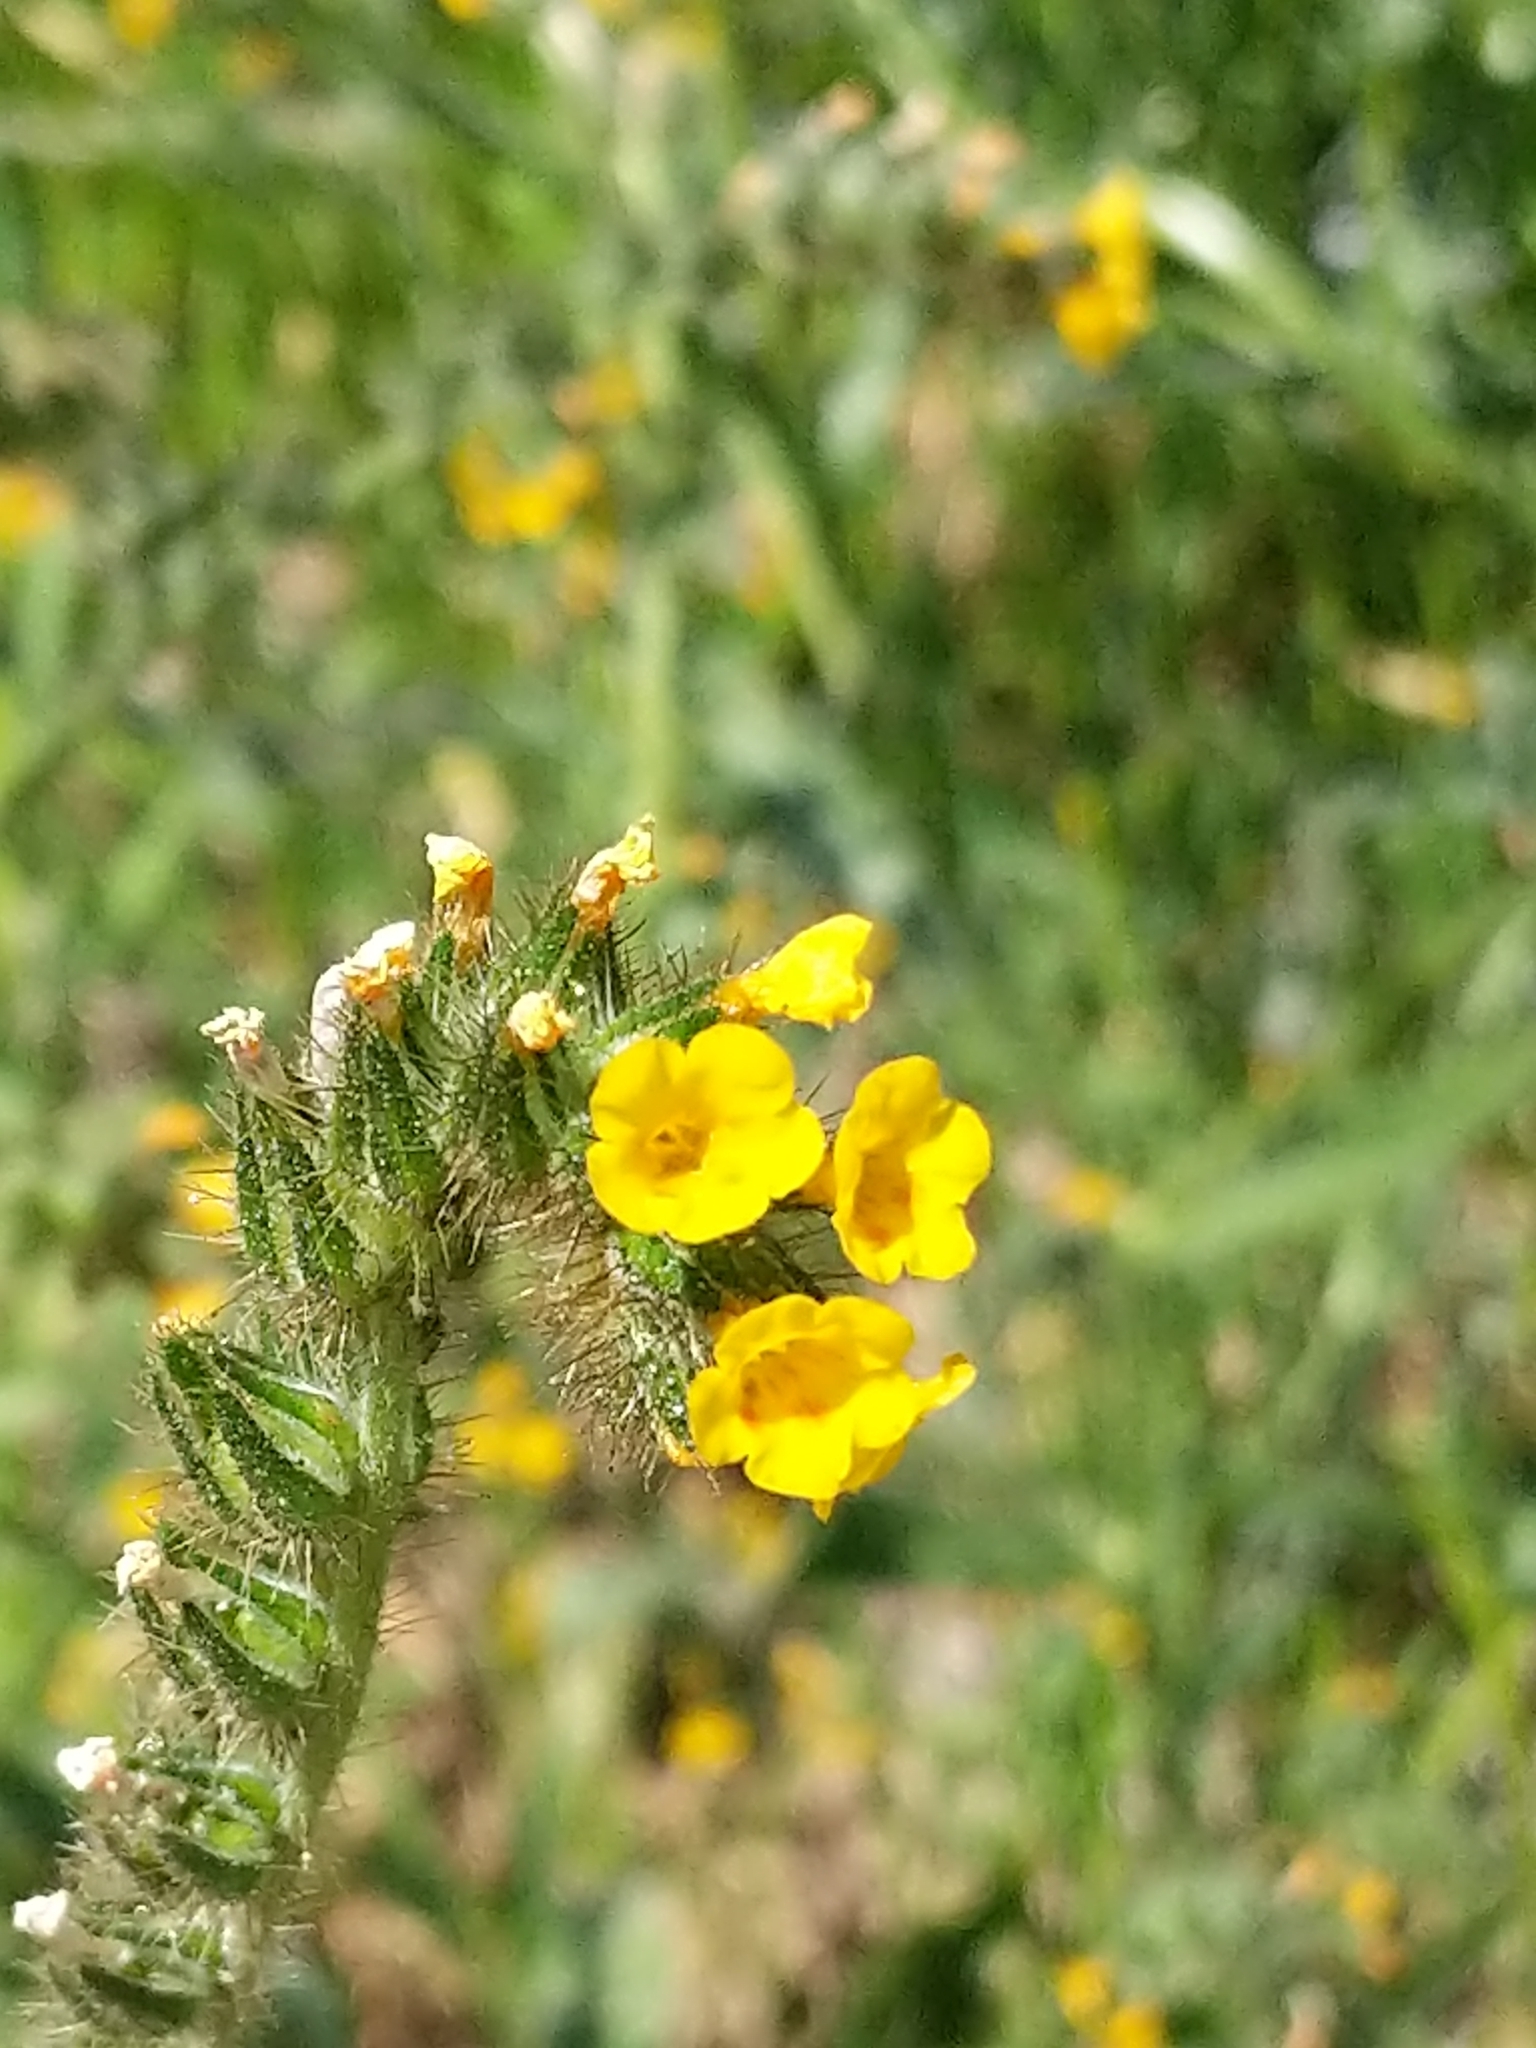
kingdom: Plantae
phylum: Tracheophyta
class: Magnoliopsida
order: Boraginales
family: Boraginaceae
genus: Amsinckia
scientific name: Amsinckia menziesii
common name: Menzies' fiddleneck
